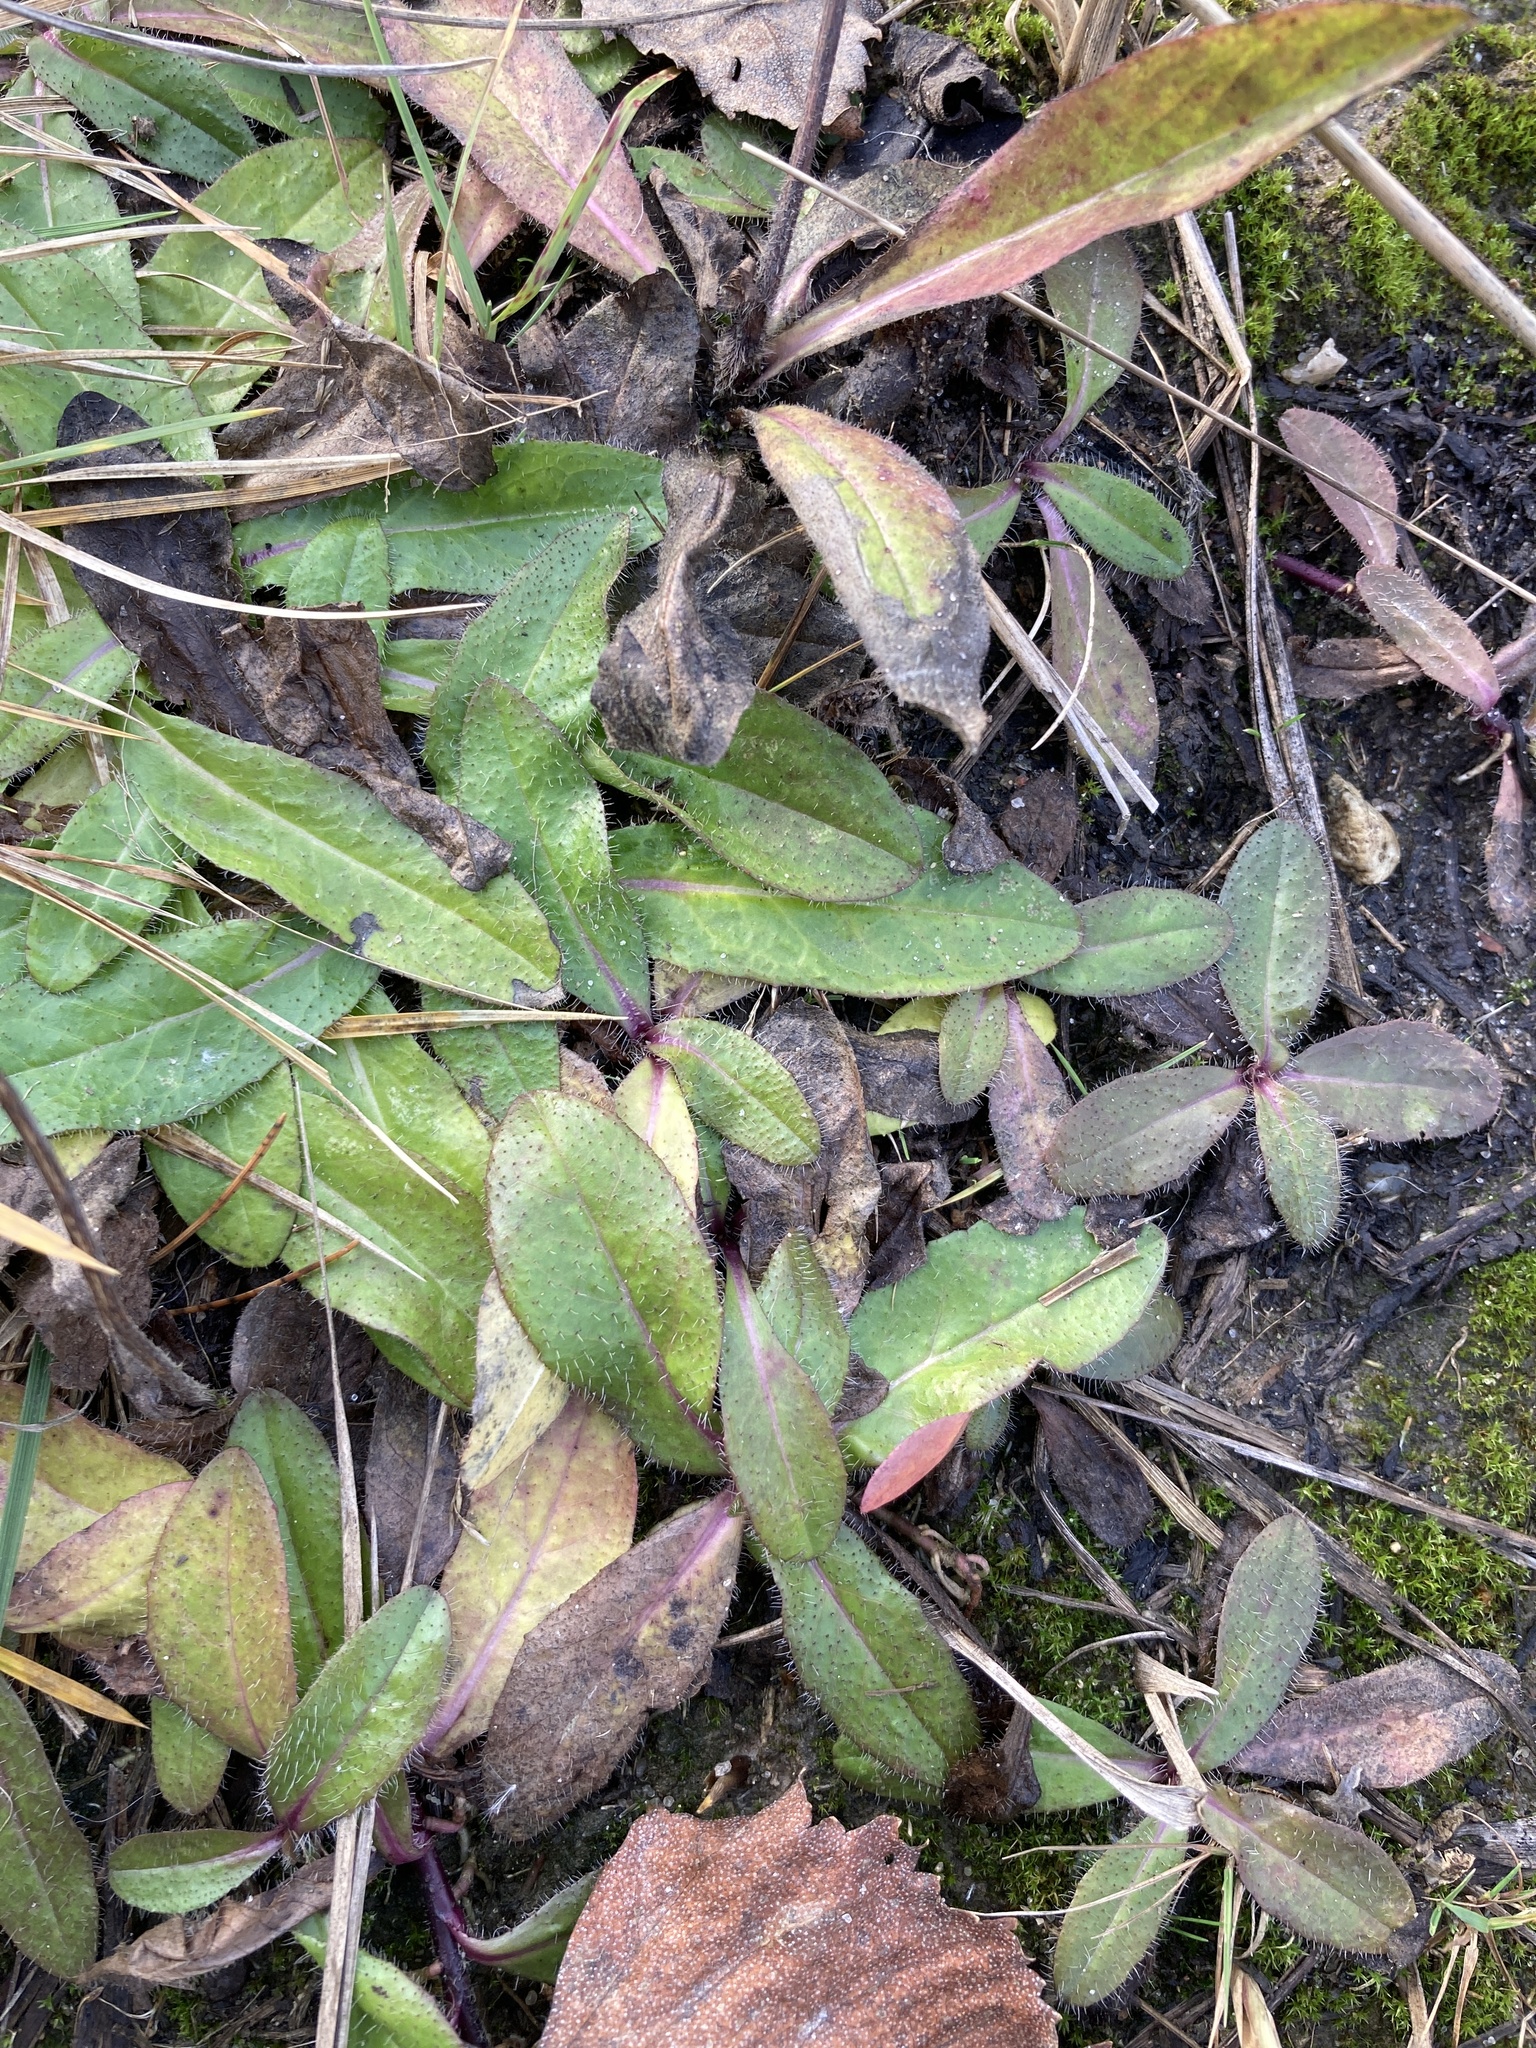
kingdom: Plantae
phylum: Tracheophyta
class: Magnoliopsida
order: Asterales
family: Asteraceae
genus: Pilosella
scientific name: Pilosella officinarum
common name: Mouse-ear hawkweed
